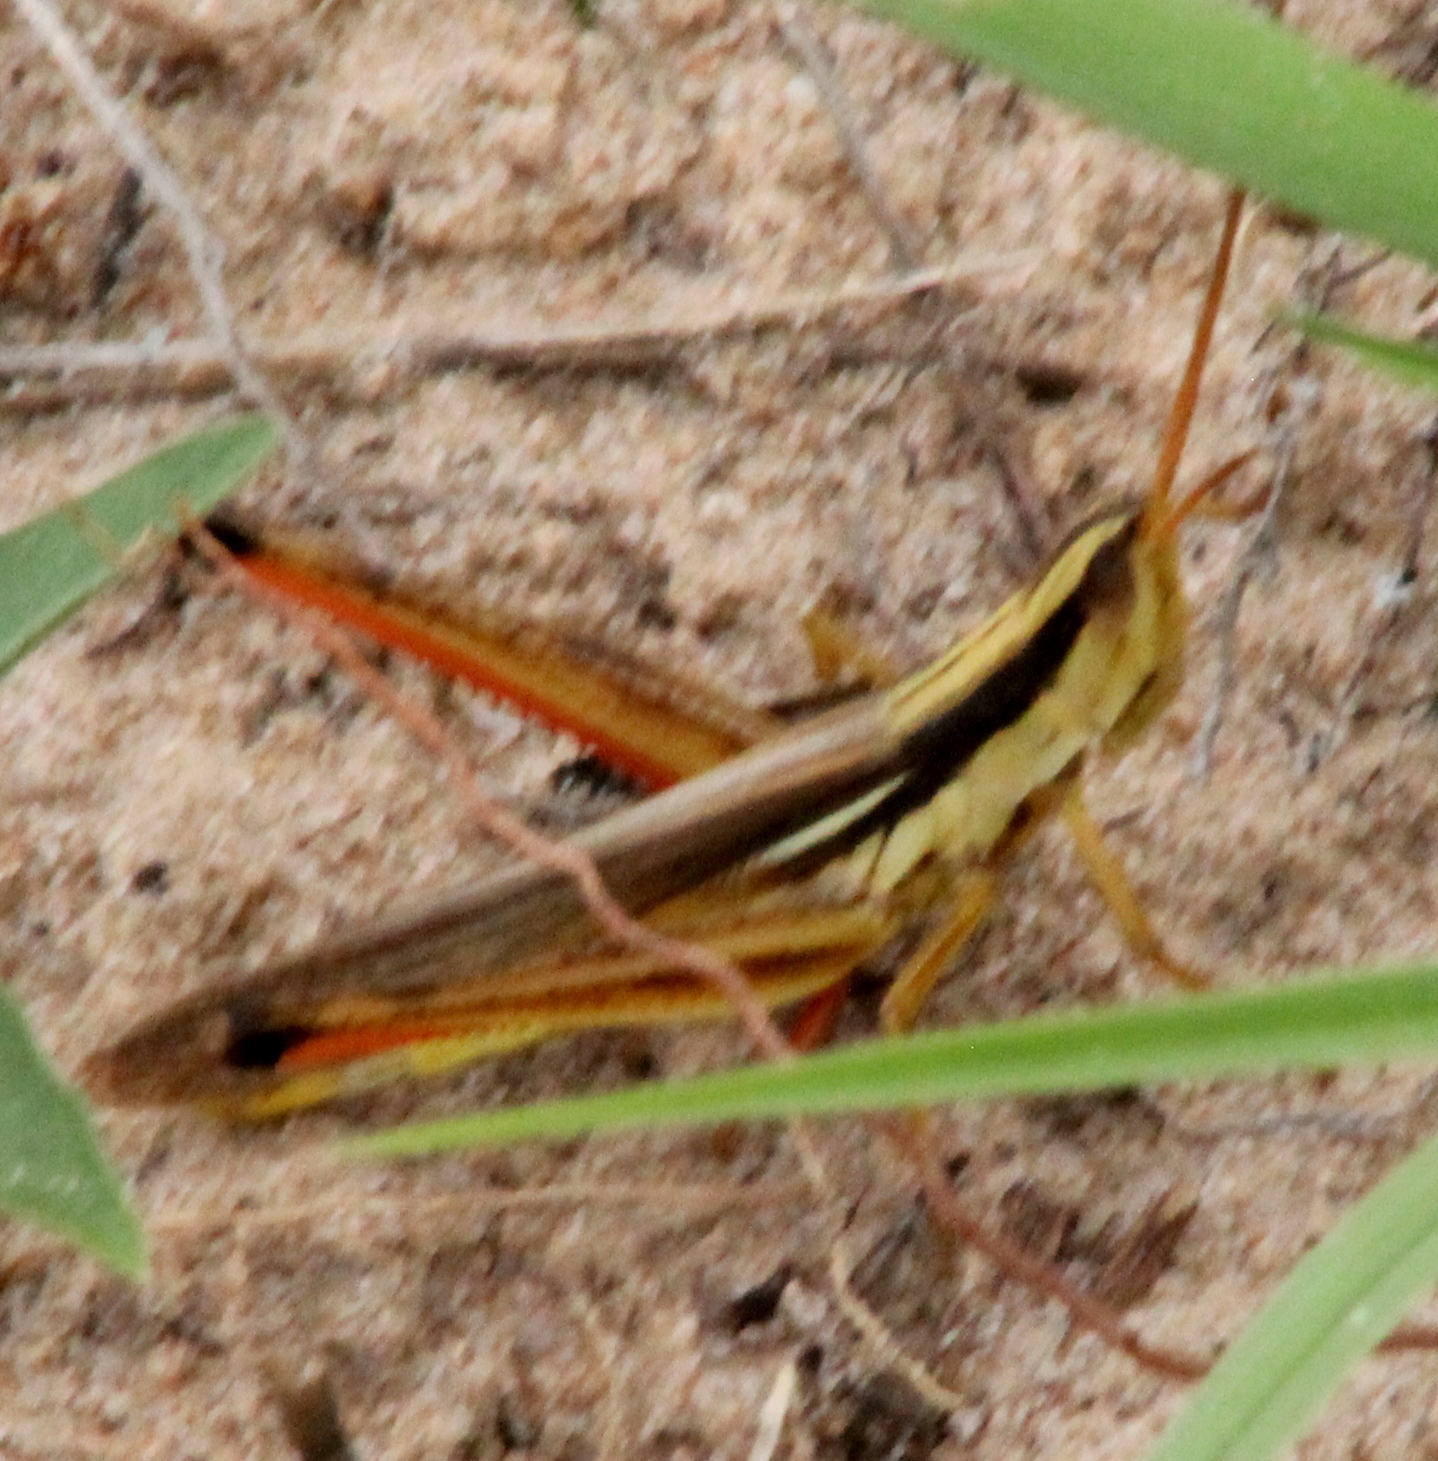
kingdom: Animalia
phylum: Arthropoda
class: Insecta
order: Orthoptera
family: Acrididae
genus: Mermiria
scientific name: Mermiria bivittata
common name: Two-striped mermiria grasshopper
